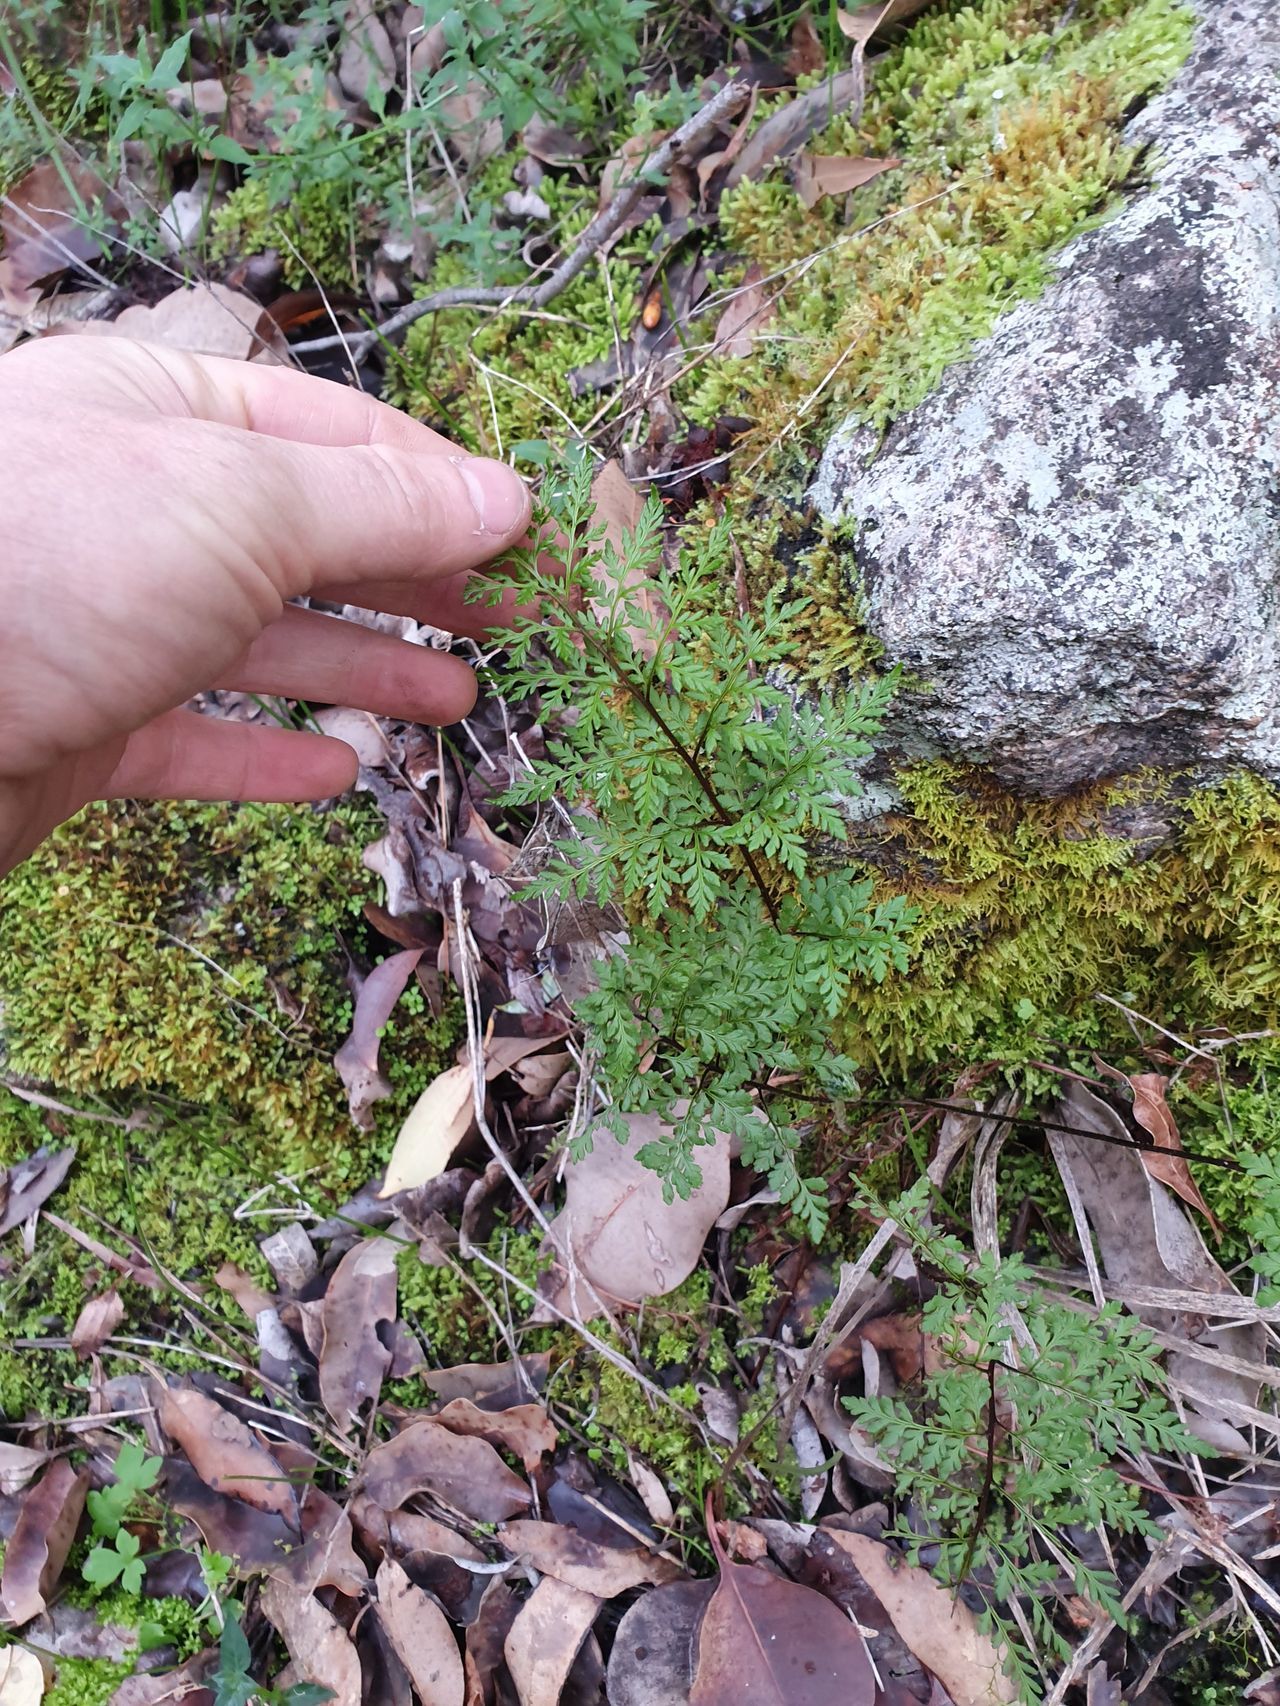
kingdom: Plantae
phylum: Tracheophyta
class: Polypodiopsida
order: Polypodiales
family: Pteridaceae
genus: Cheilanthes
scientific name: Cheilanthes austrotenuifolia
